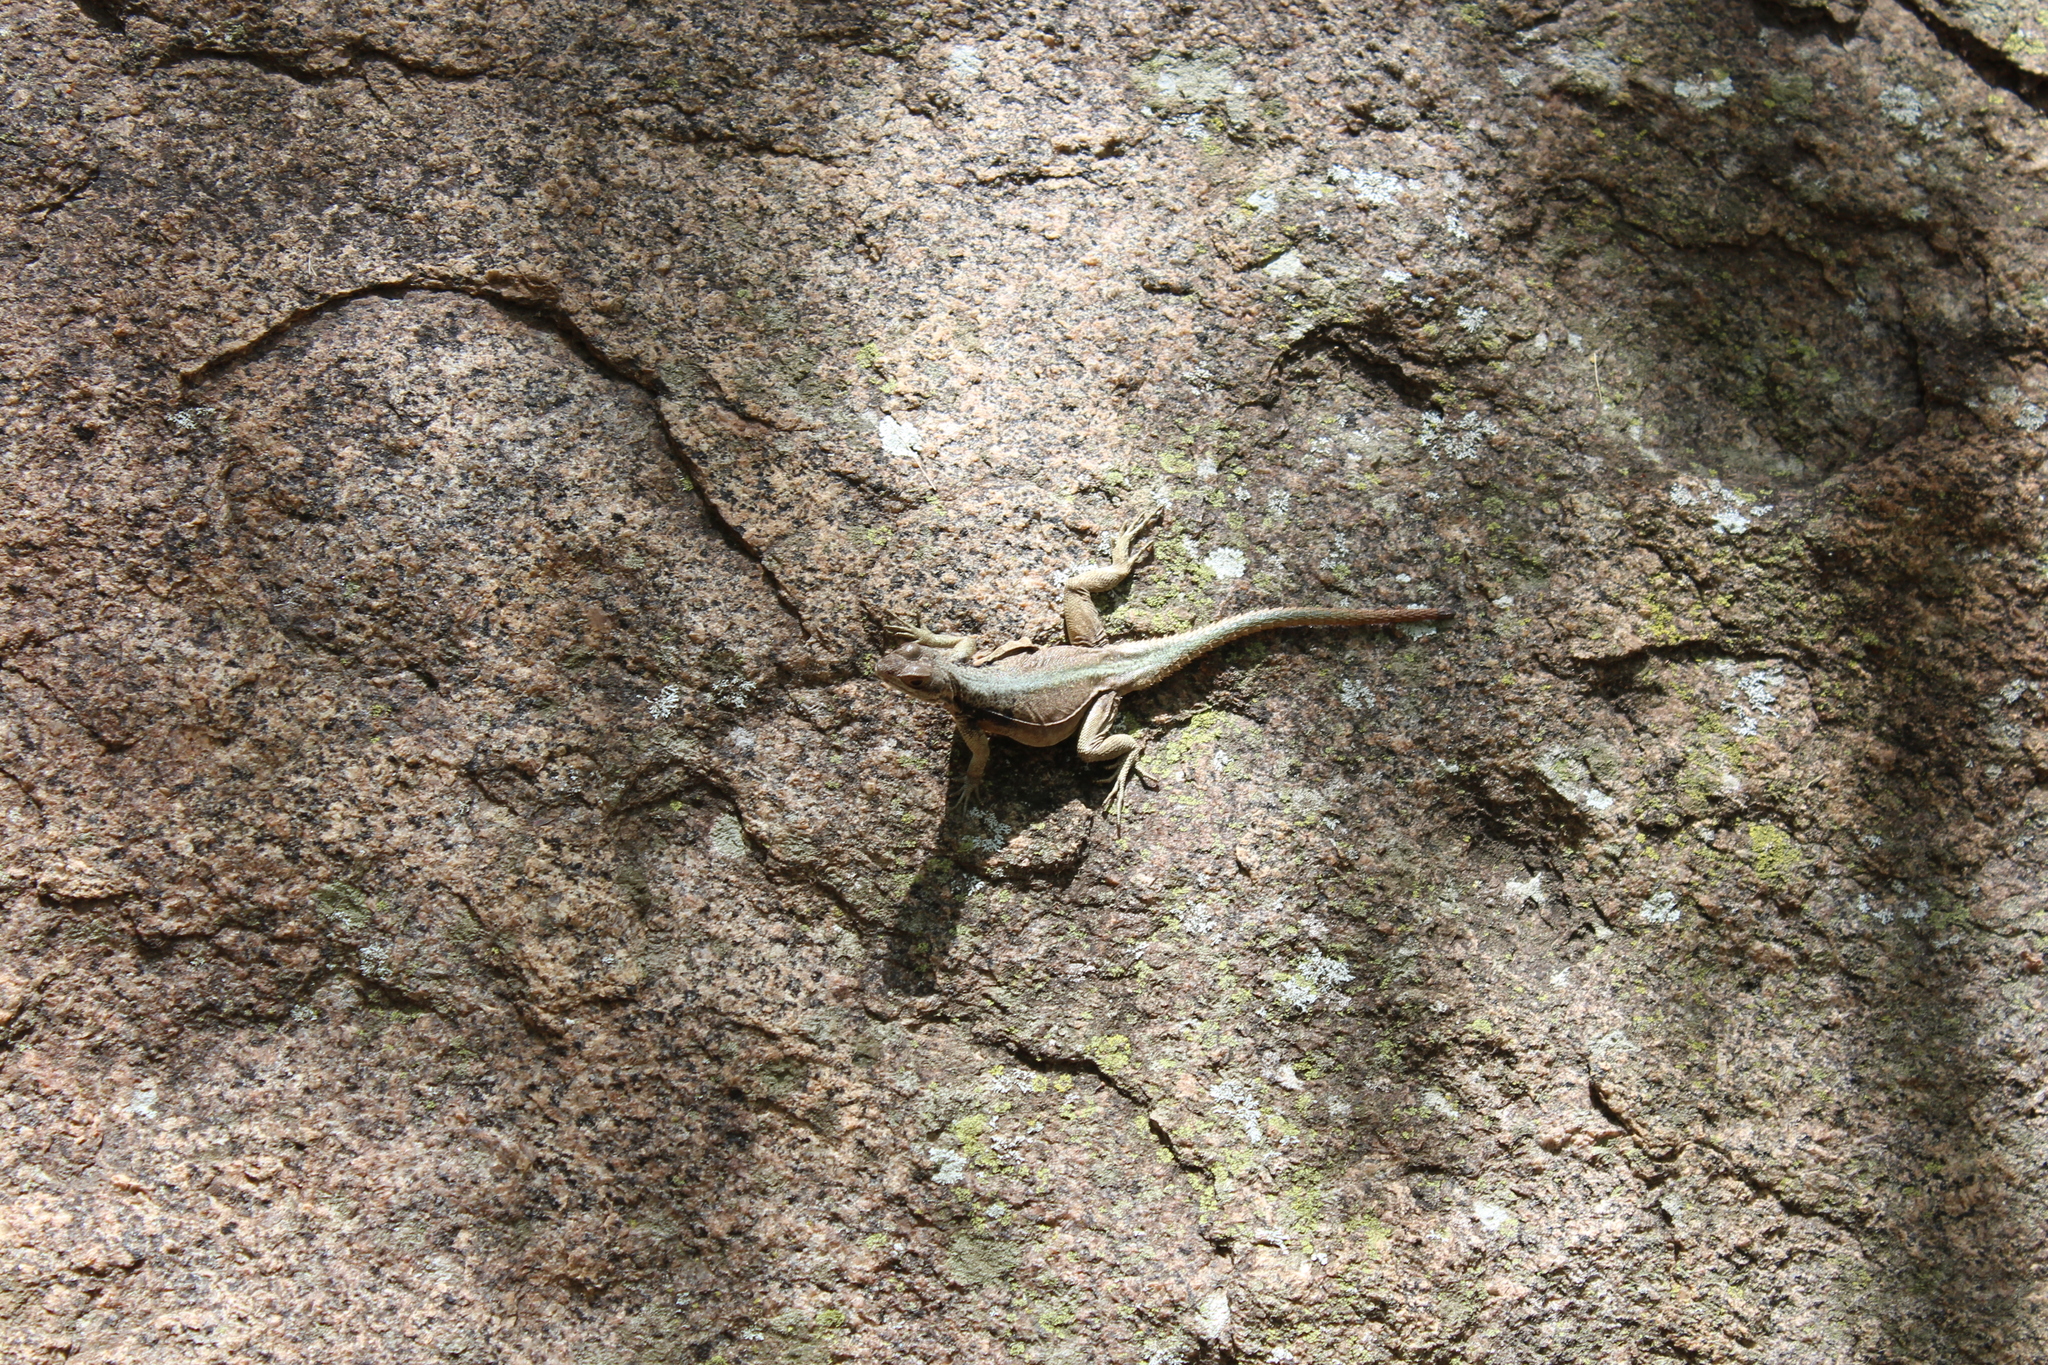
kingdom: Animalia
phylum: Chordata
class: Squamata
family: Opluridae
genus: Oplurus
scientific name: Oplurus grandidieri
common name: Grandidier's madagascar swift
